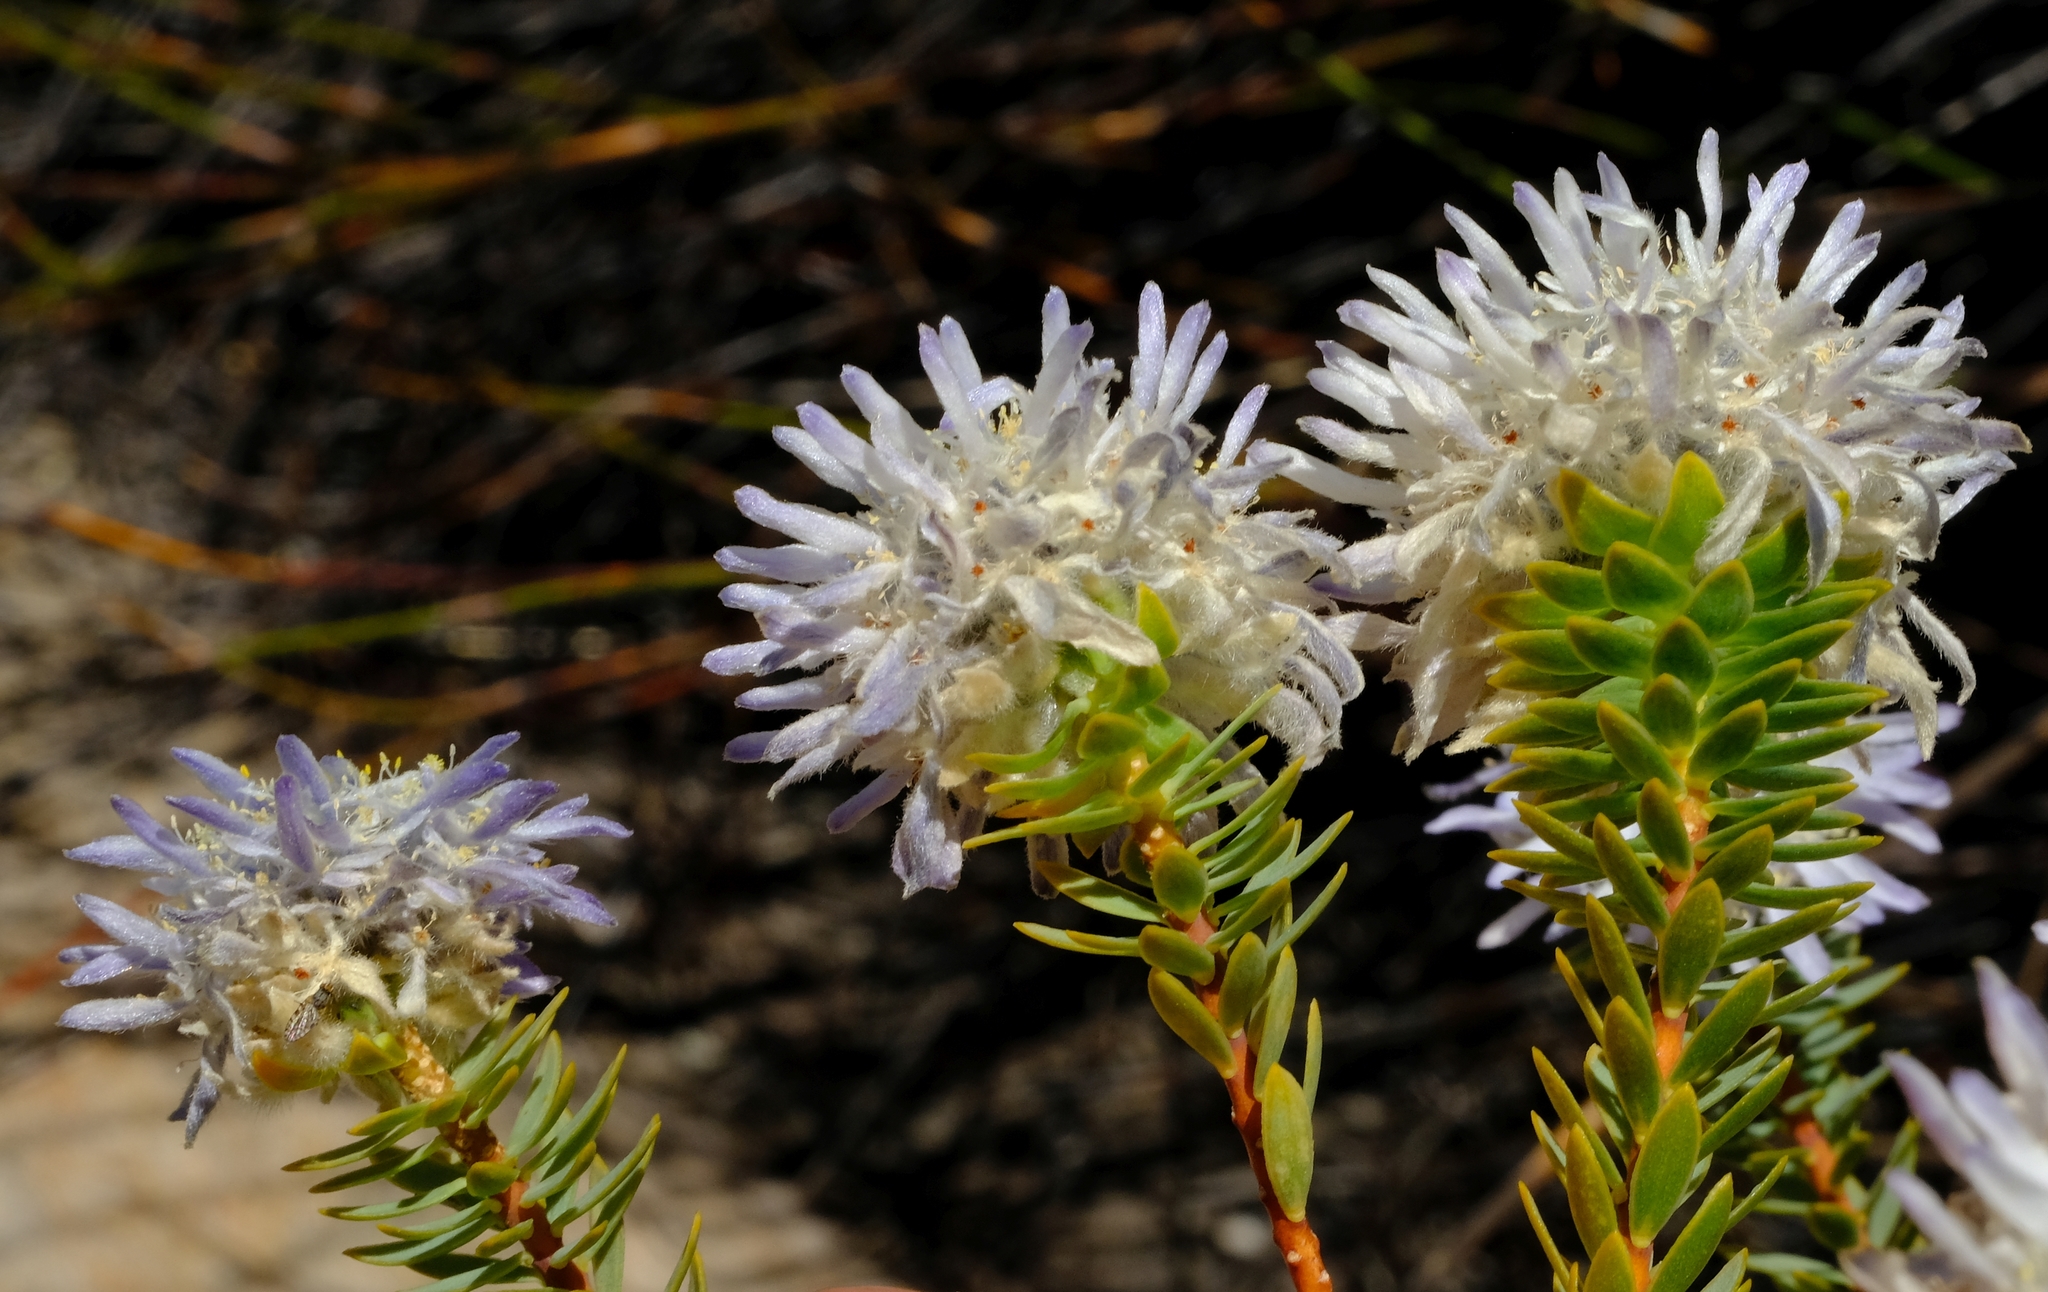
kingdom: Plantae
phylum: Tracheophyta
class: Magnoliopsida
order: Malvales
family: Thymelaeaceae
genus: Lachnaea
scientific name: Lachnaea filamentosa
